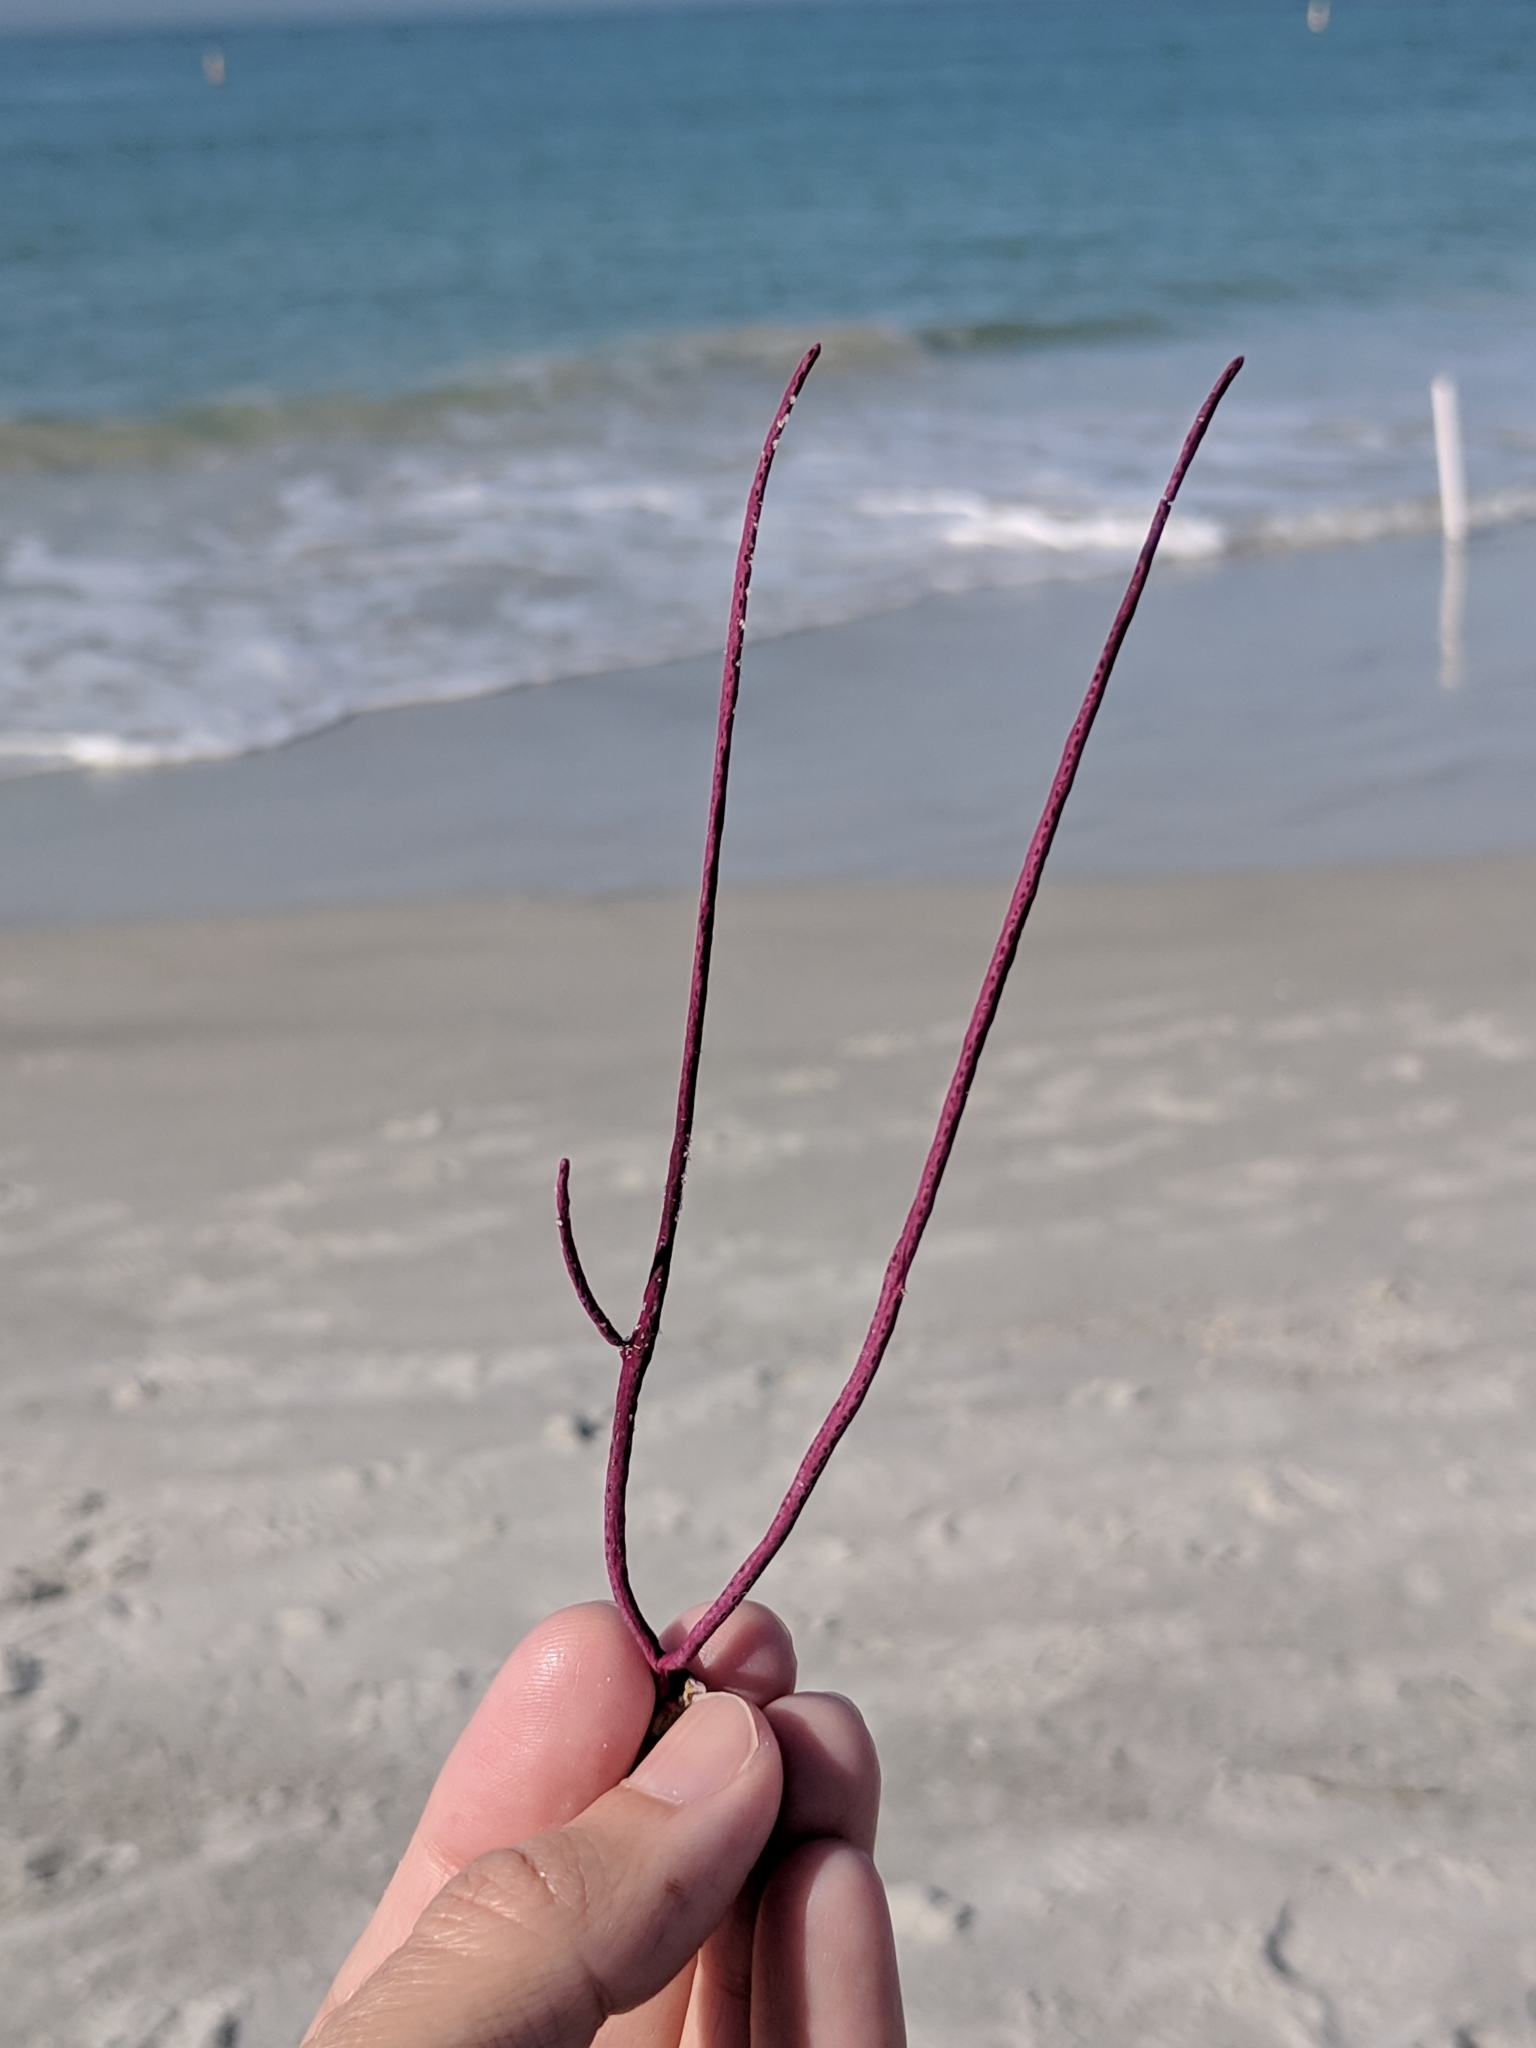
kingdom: Animalia
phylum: Cnidaria
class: Anthozoa
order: Malacalcyonacea
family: Gorgoniidae
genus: Leptogorgia
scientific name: Leptogorgia virgulata
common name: Colorful sea whip
